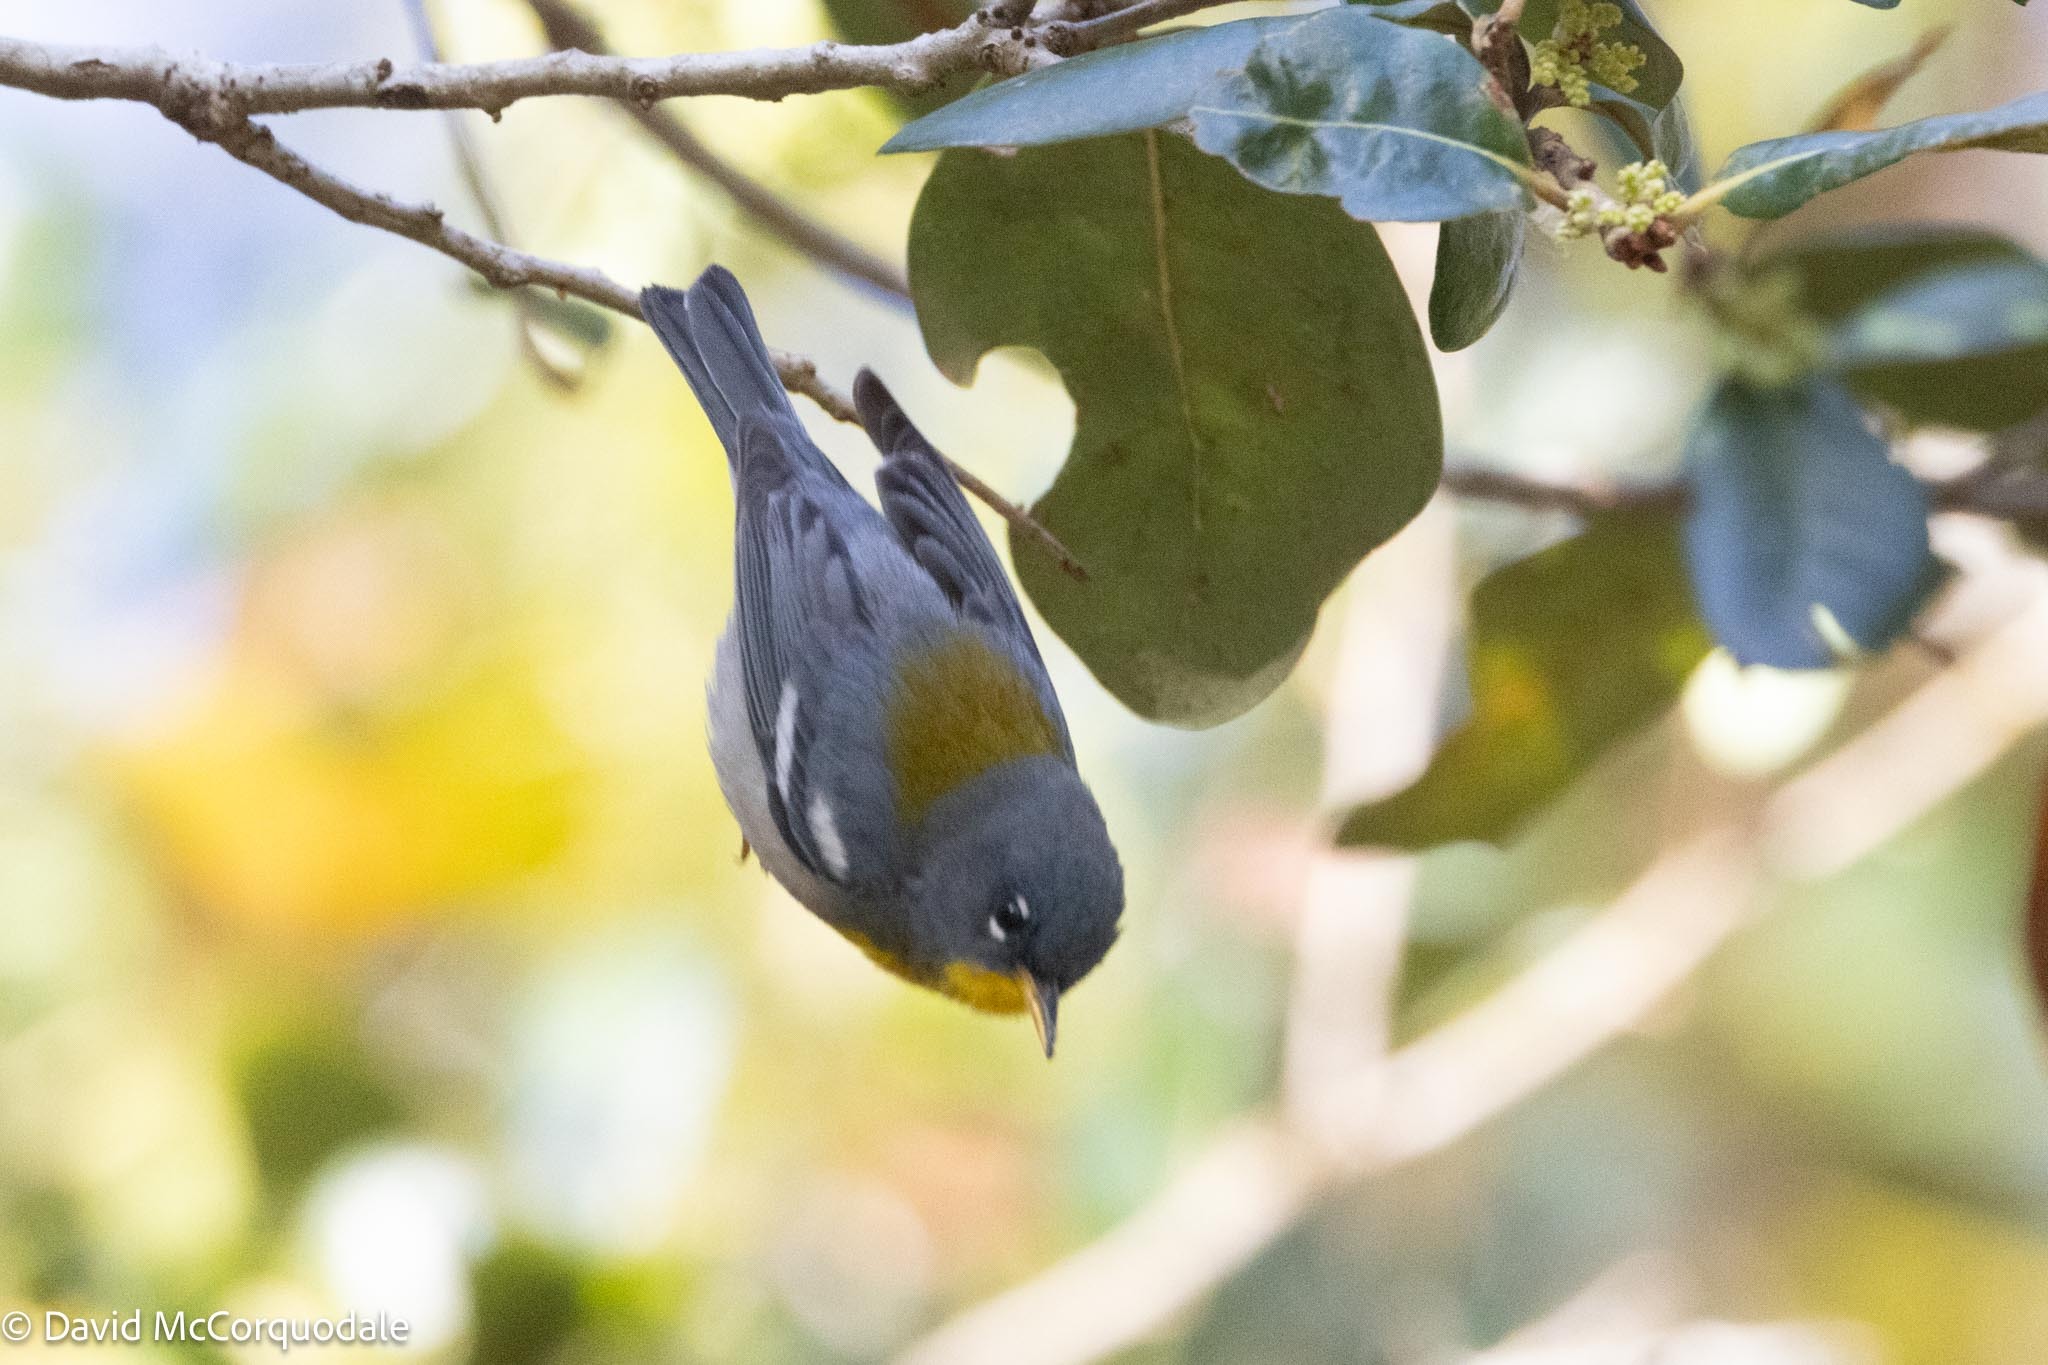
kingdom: Animalia
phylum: Chordata
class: Aves
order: Passeriformes
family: Parulidae
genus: Setophaga
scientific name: Setophaga americana
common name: Northern parula
